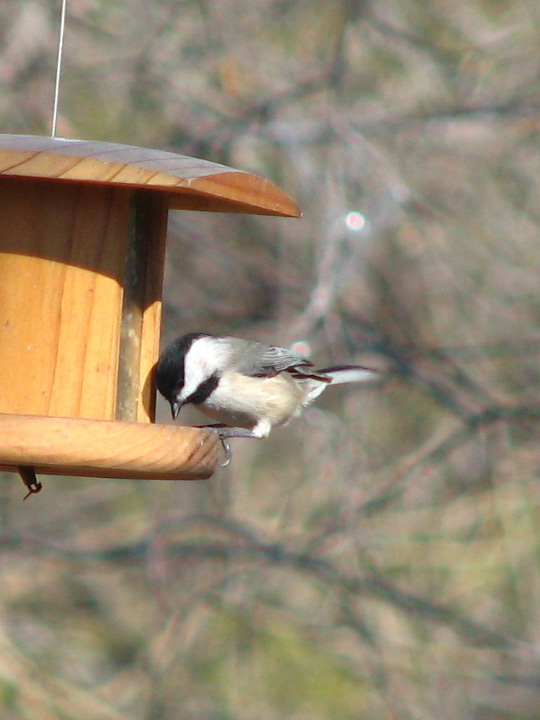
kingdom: Animalia
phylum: Chordata
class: Aves
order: Passeriformes
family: Paridae
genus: Poecile
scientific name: Poecile carolinensis
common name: Carolina chickadee
